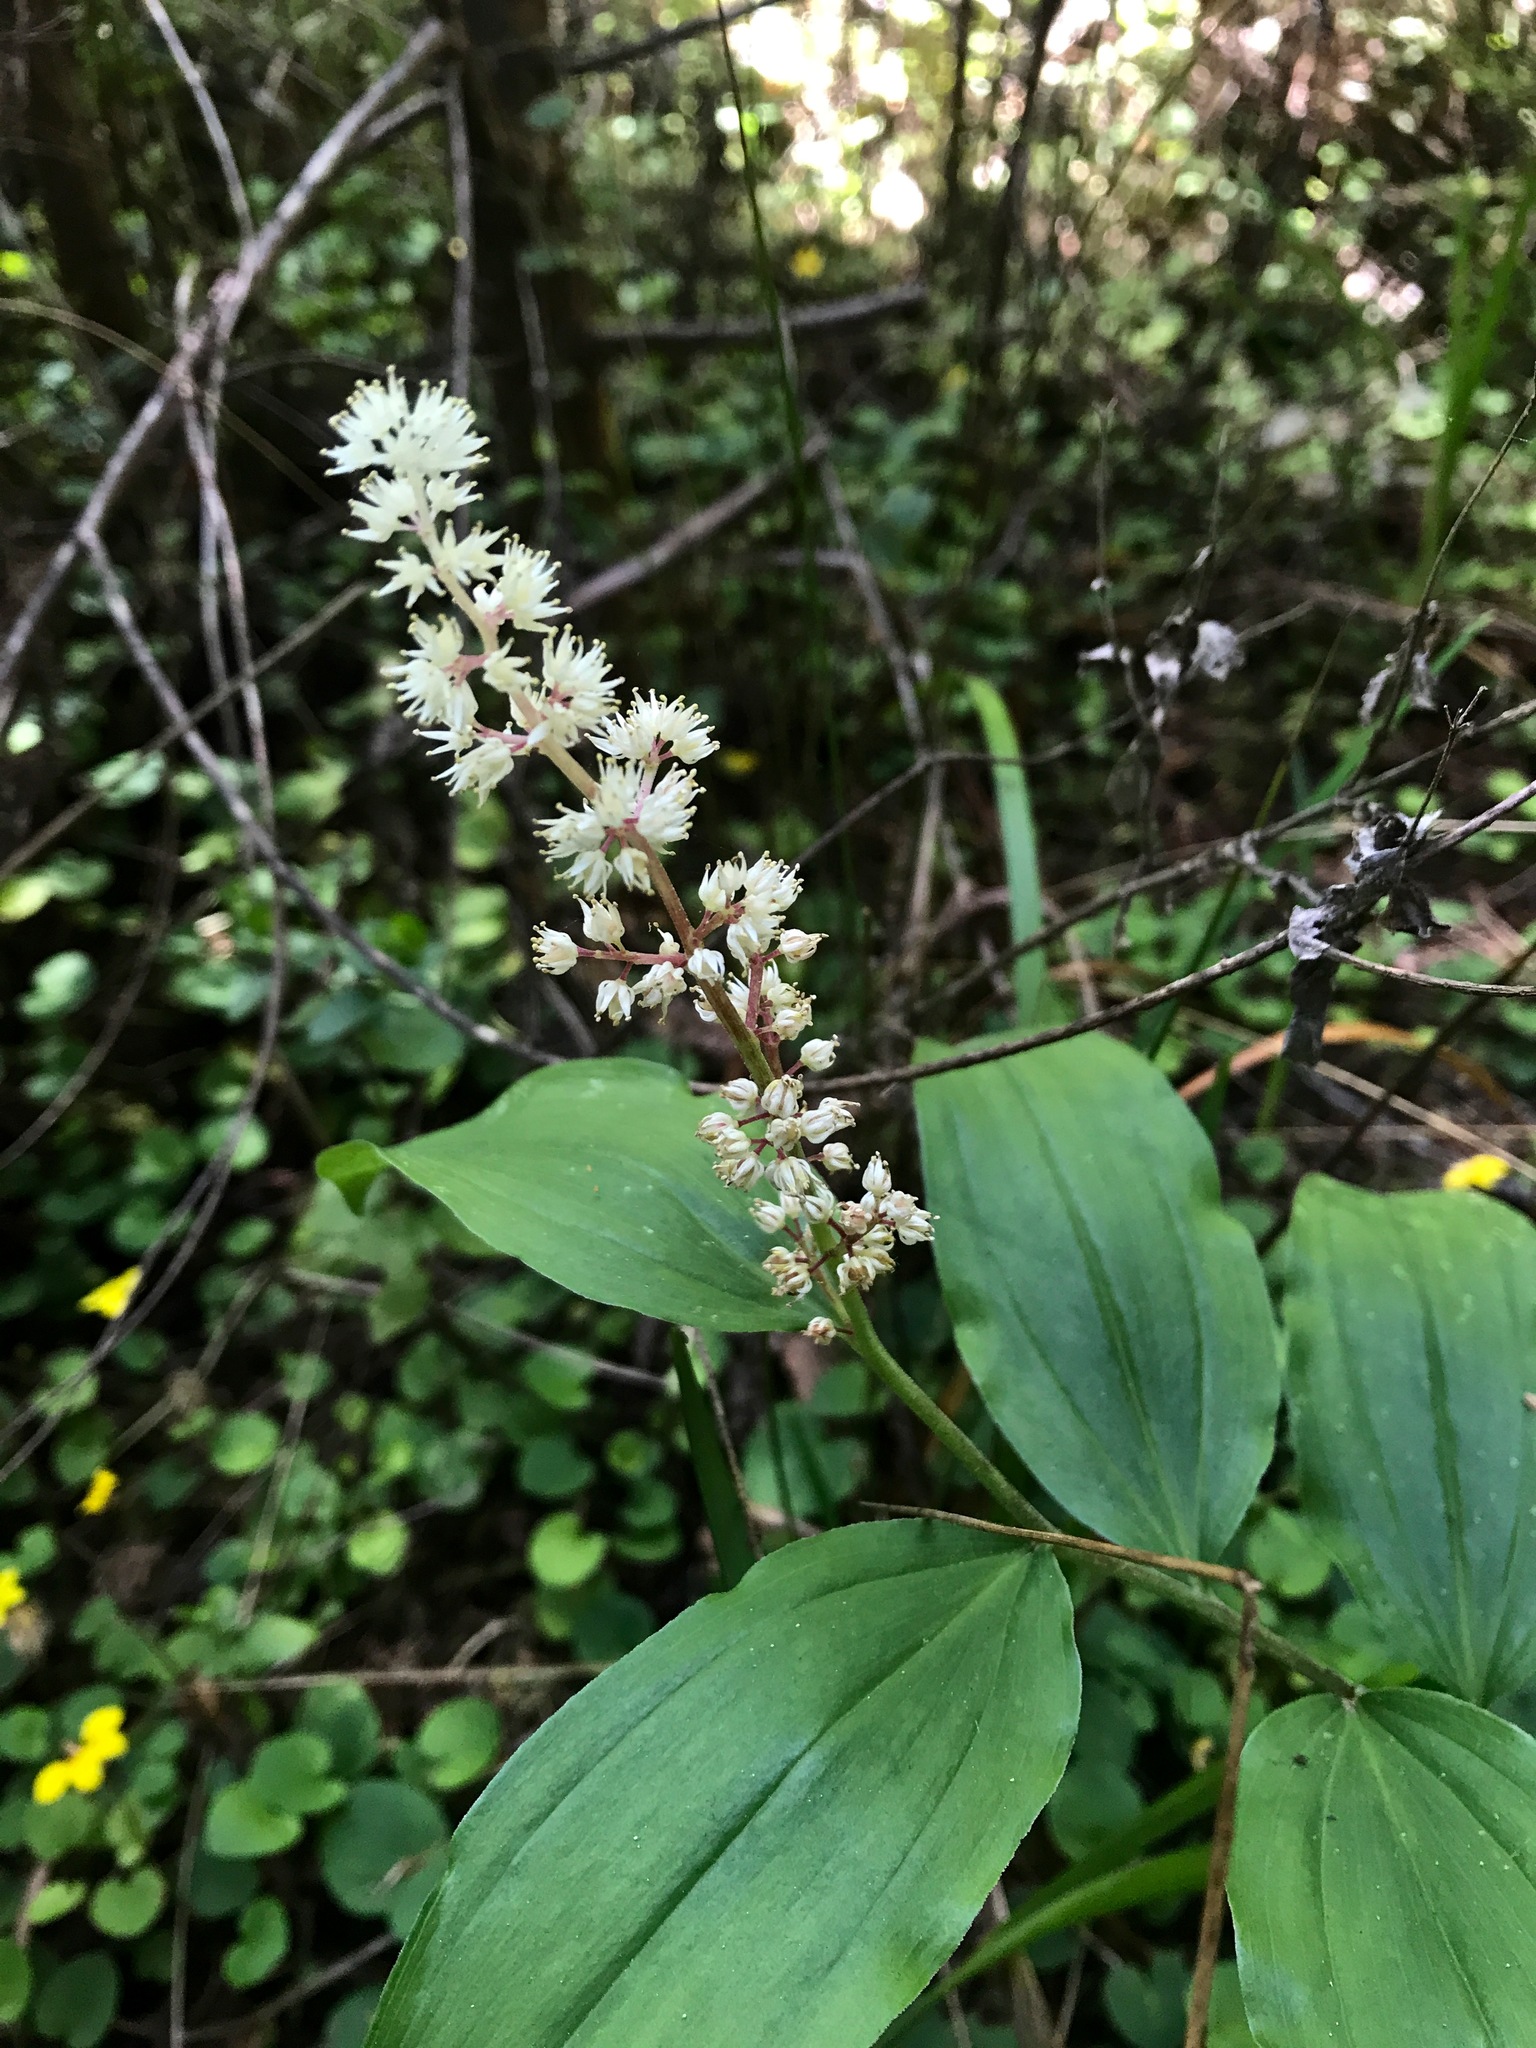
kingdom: Plantae
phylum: Tracheophyta
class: Liliopsida
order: Asparagales
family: Asparagaceae
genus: Maianthemum
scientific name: Maianthemum racemosum
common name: False spikenard
